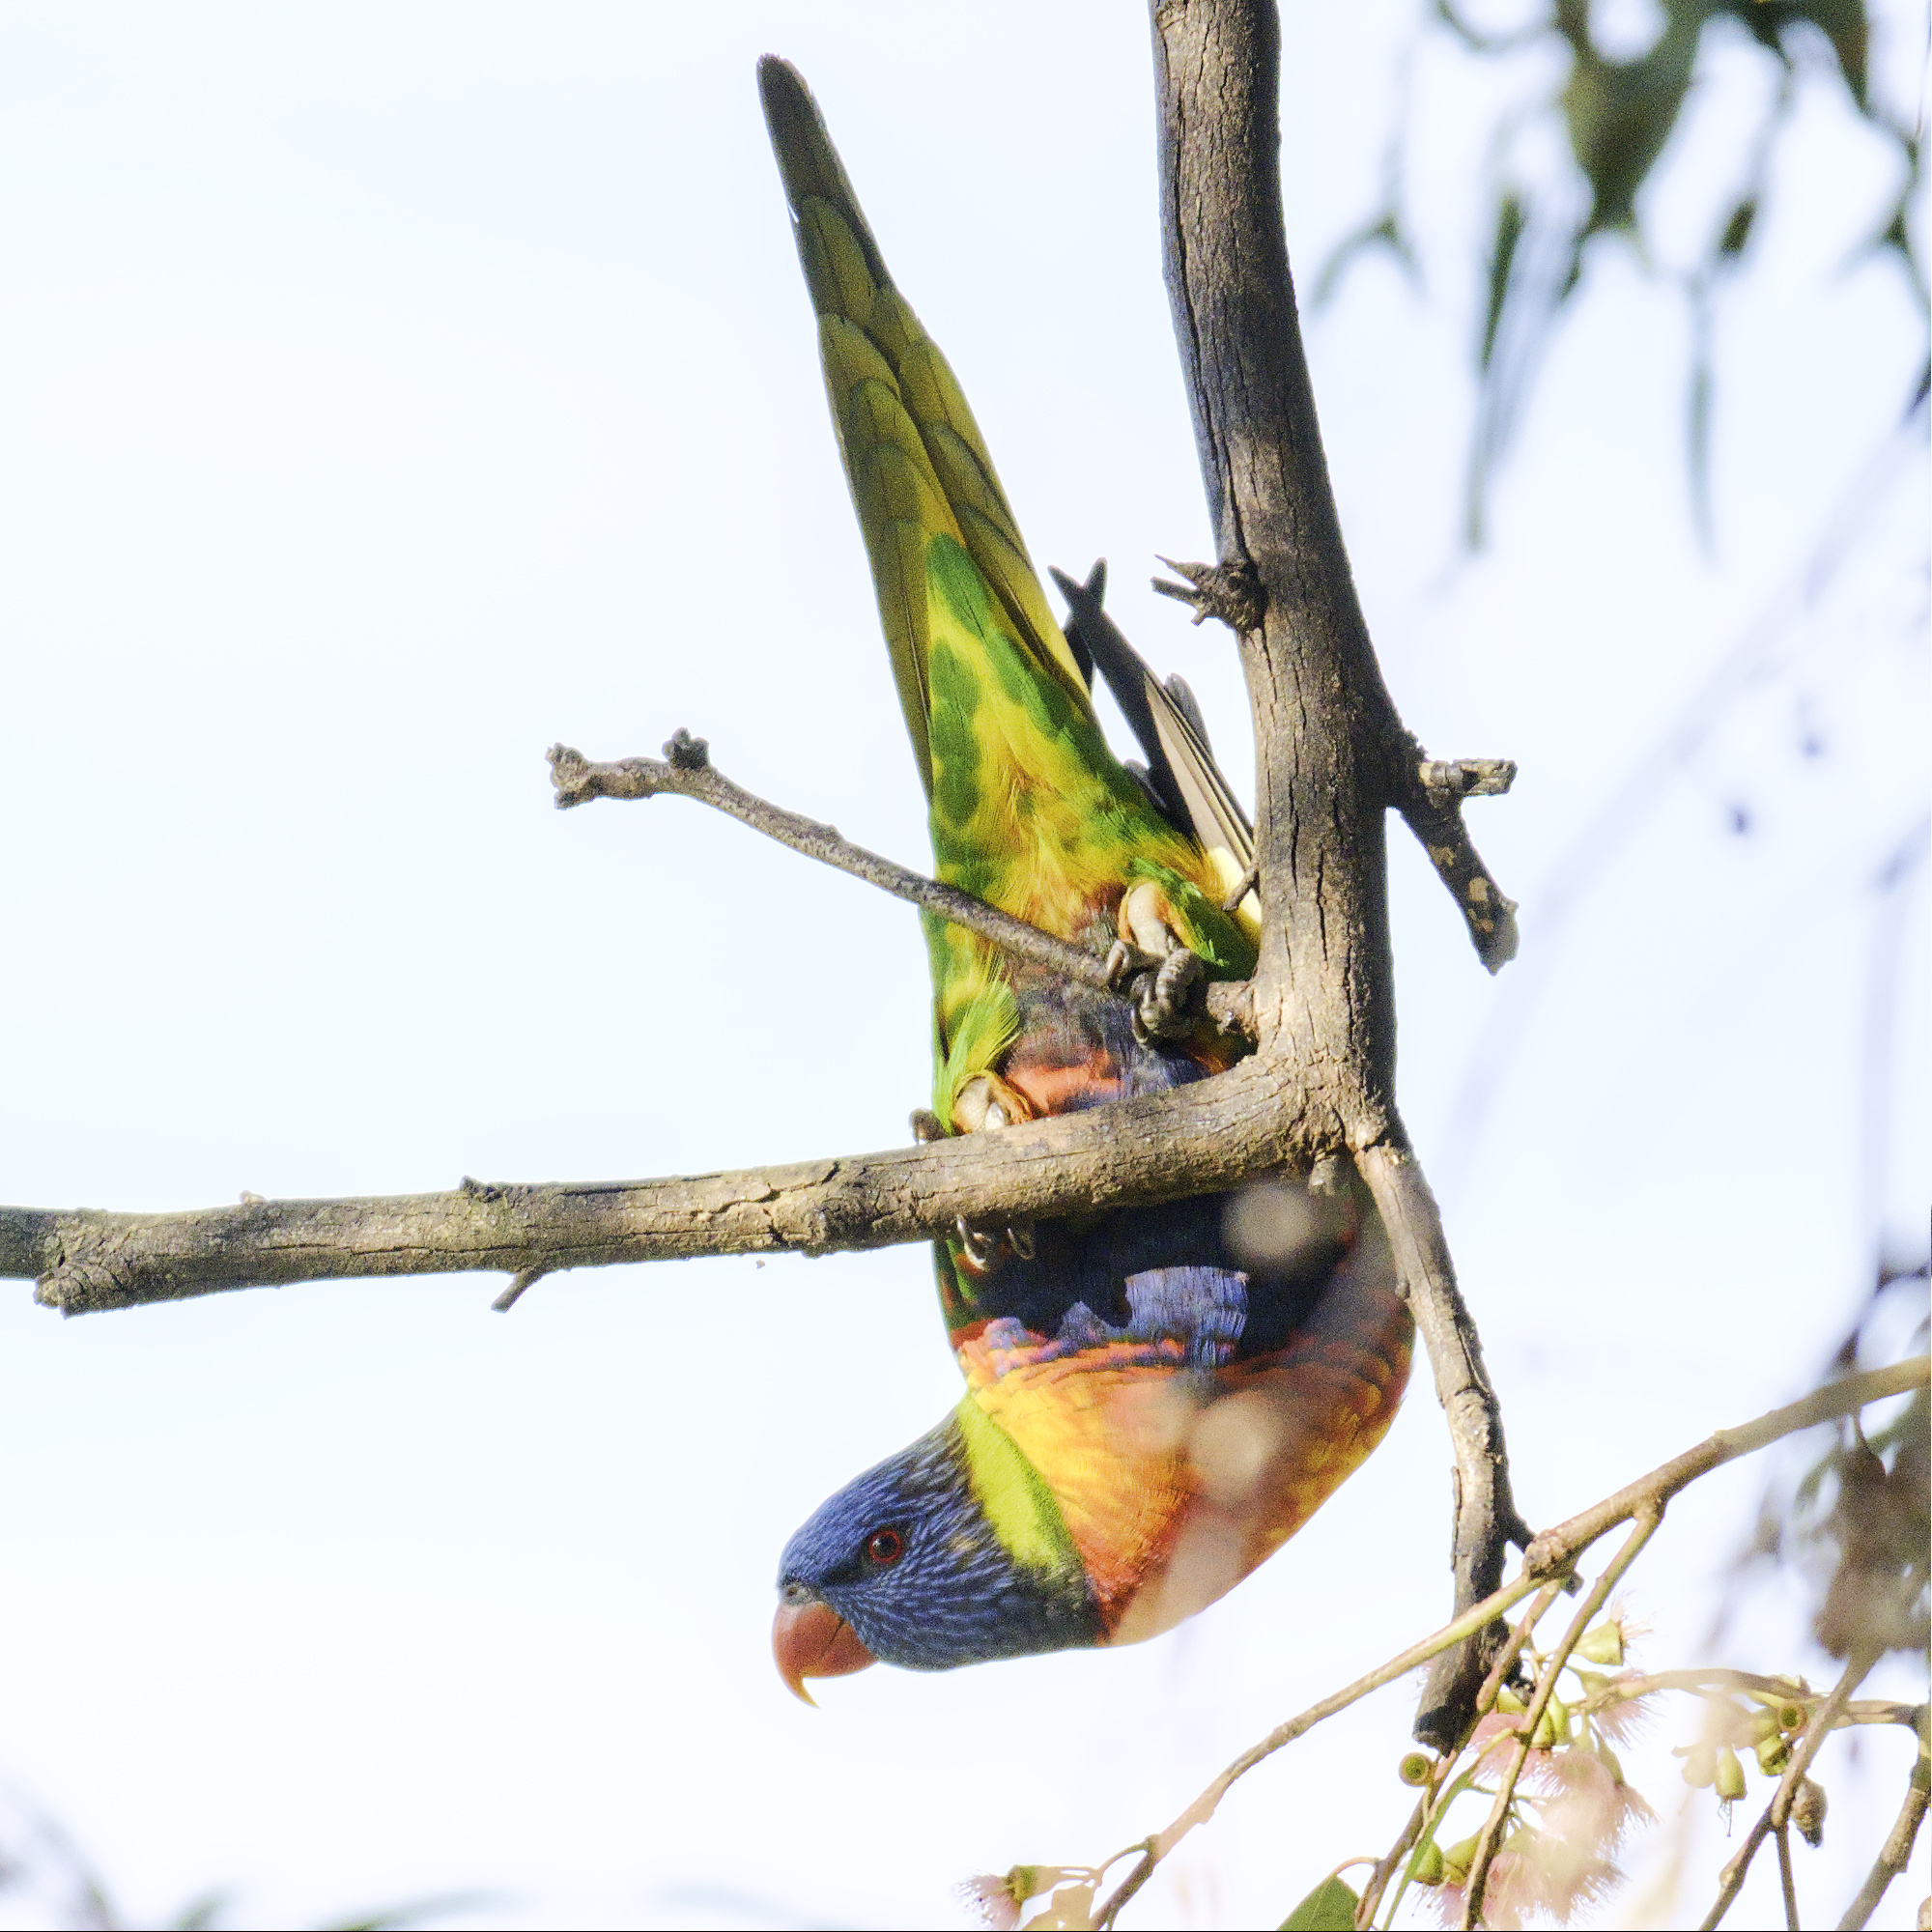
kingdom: Animalia
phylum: Chordata
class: Aves
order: Psittaciformes
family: Psittacidae
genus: Trichoglossus
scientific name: Trichoglossus haematodus
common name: Coconut lorikeet
